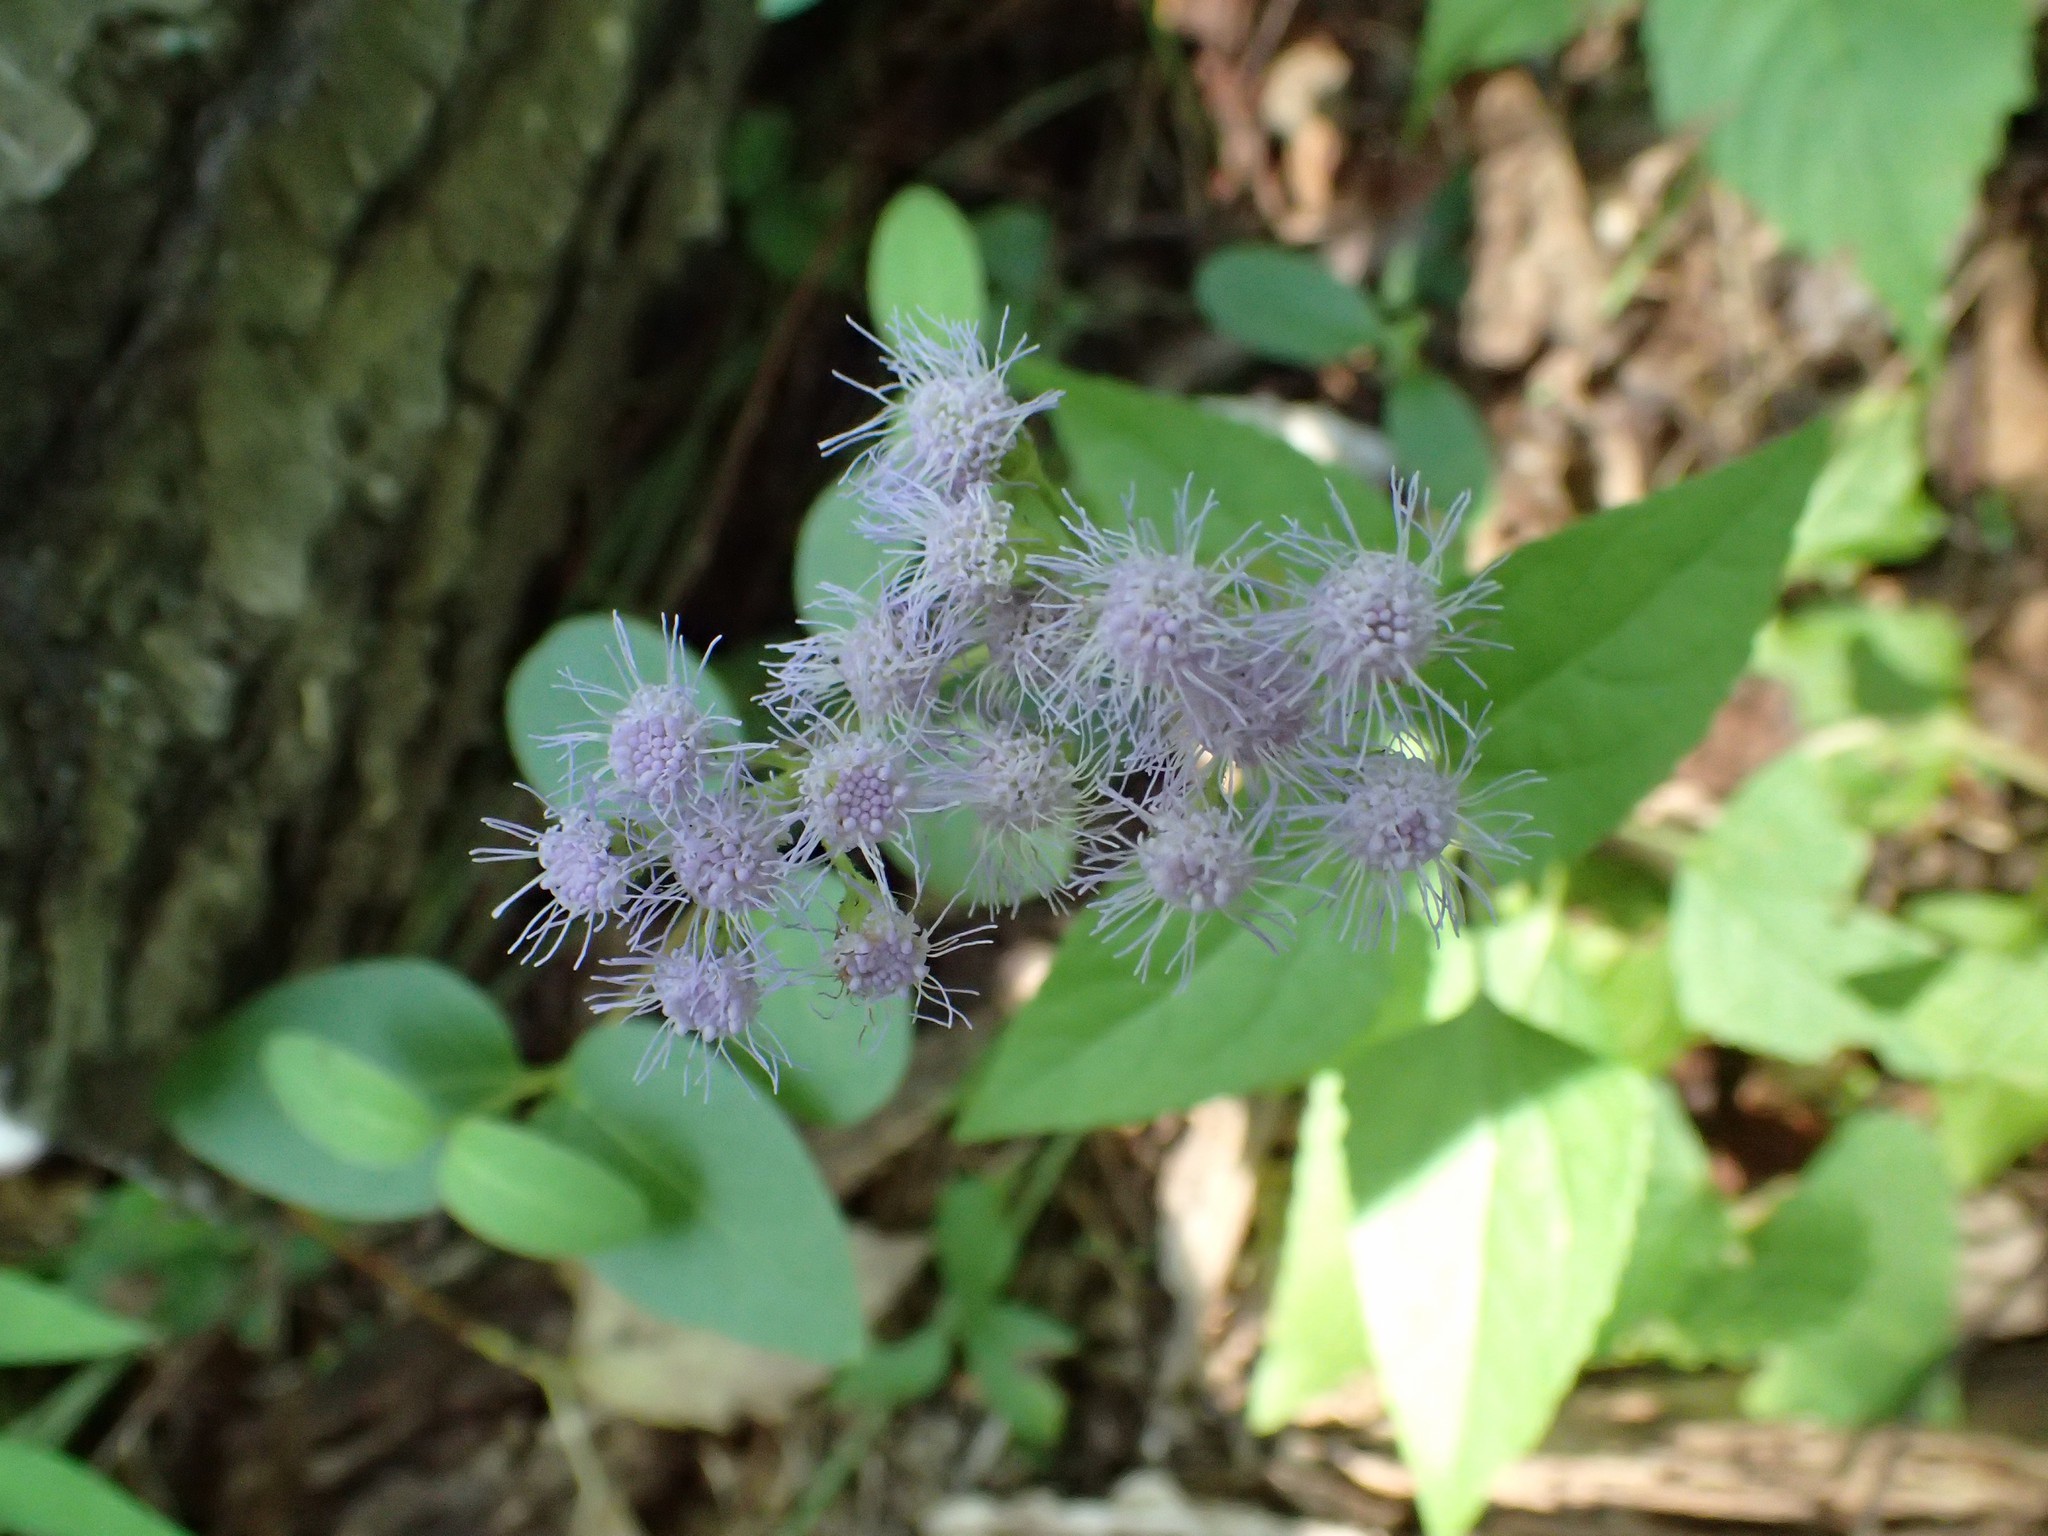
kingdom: Plantae
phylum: Tracheophyta
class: Magnoliopsida
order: Asterales
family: Asteraceae
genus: Conoclinium
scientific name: Conoclinium coelestinum
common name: Blue mistflower
